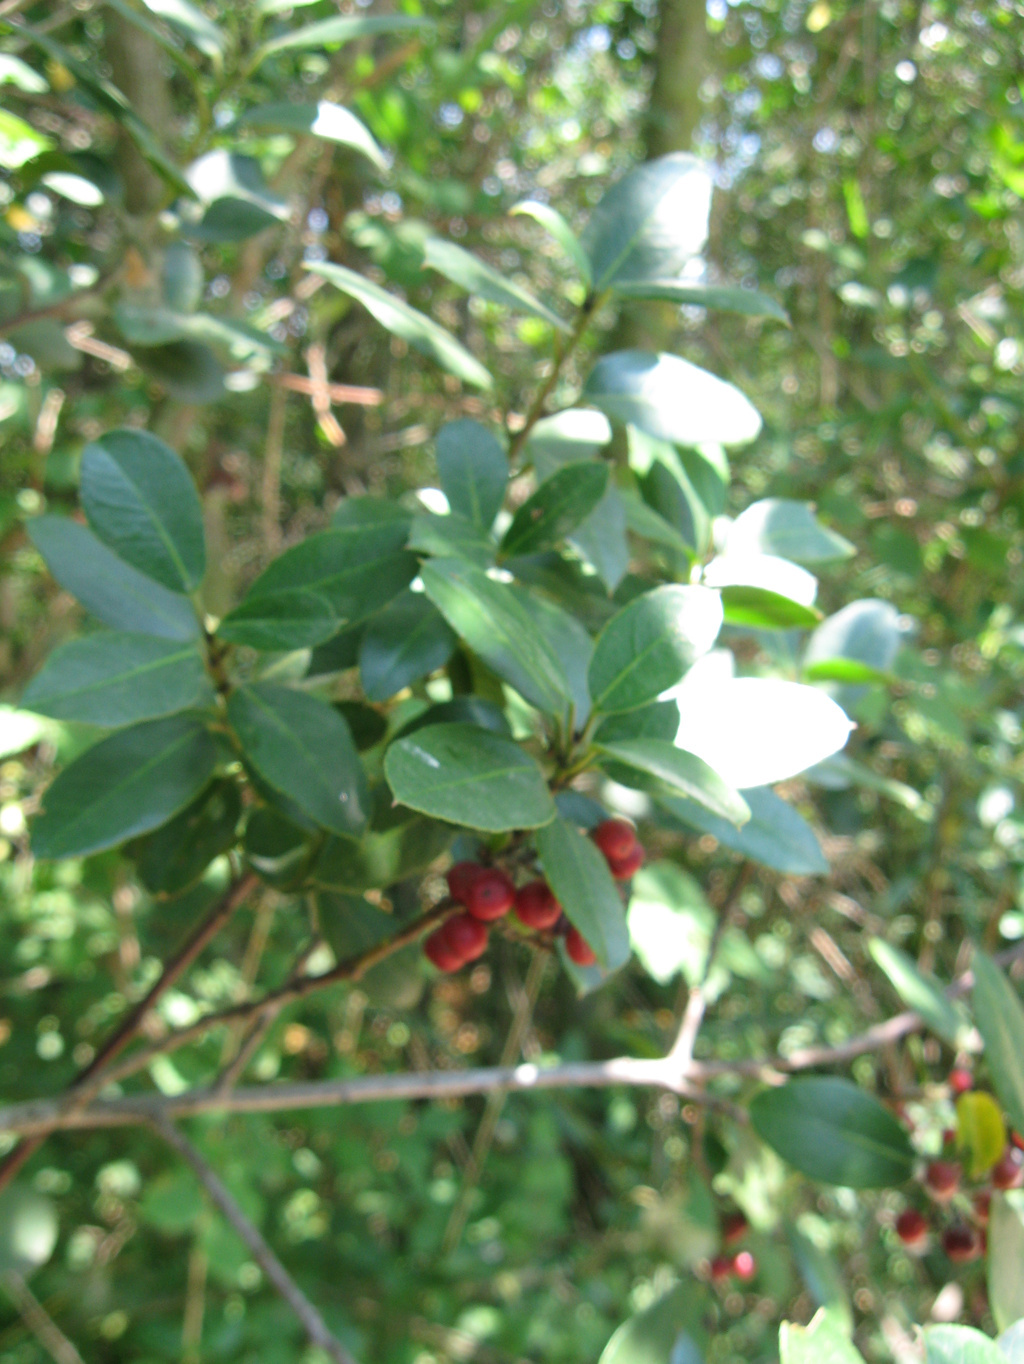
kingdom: Plantae
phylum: Tracheophyta
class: Magnoliopsida
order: Rosales
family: Rhamnaceae
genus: Rhamnus
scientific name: Rhamnus alaternus
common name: Mediterranean buckthorn
